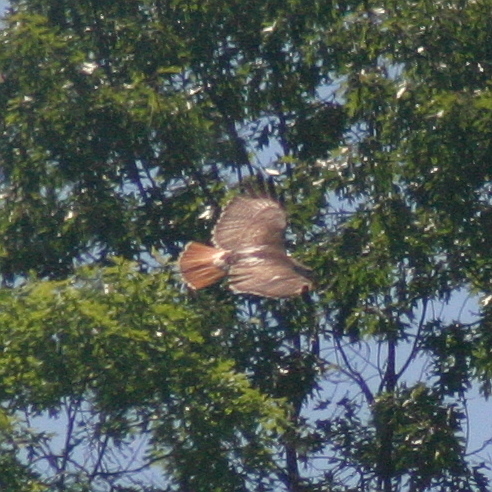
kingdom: Animalia
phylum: Chordata
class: Aves
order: Accipitriformes
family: Accipitridae
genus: Buteo
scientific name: Buteo jamaicensis
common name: Red-tailed hawk
